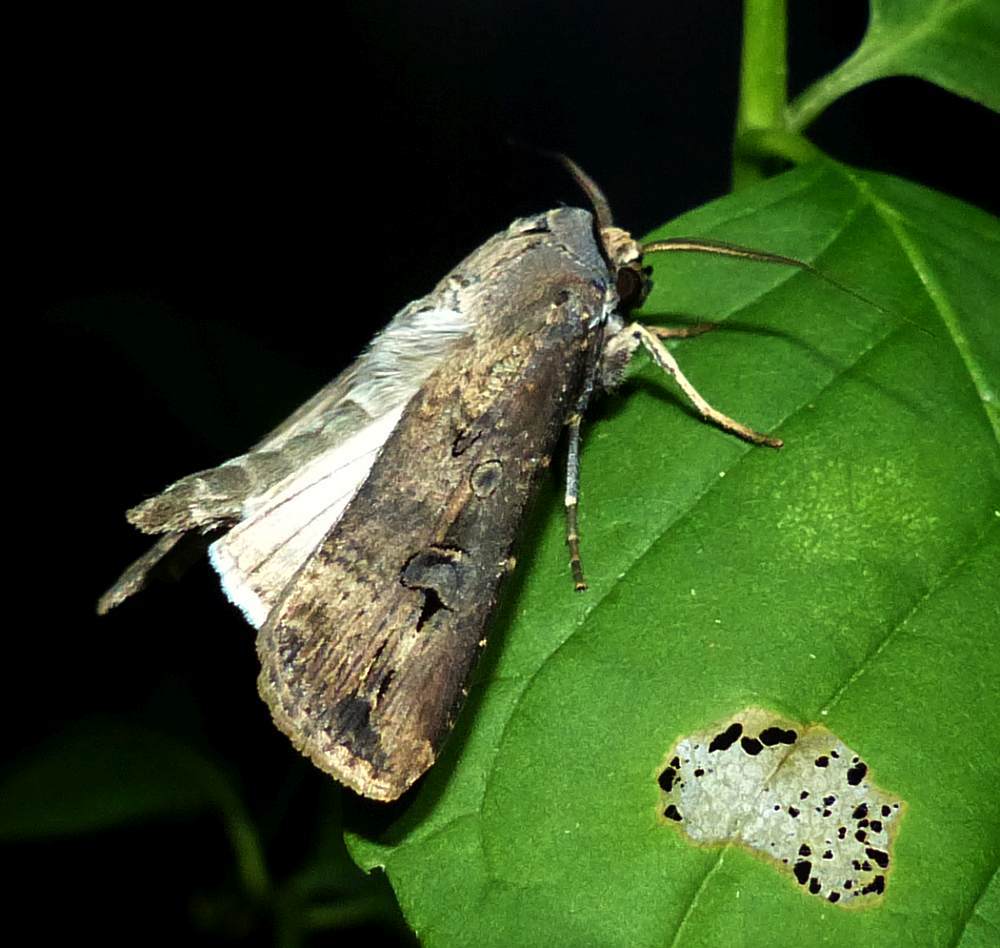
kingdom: Animalia
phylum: Arthropoda
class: Insecta
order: Lepidoptera
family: Noctuidae
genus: Agrotis
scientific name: Agrotis ipsilon
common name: Dark sword-grass
